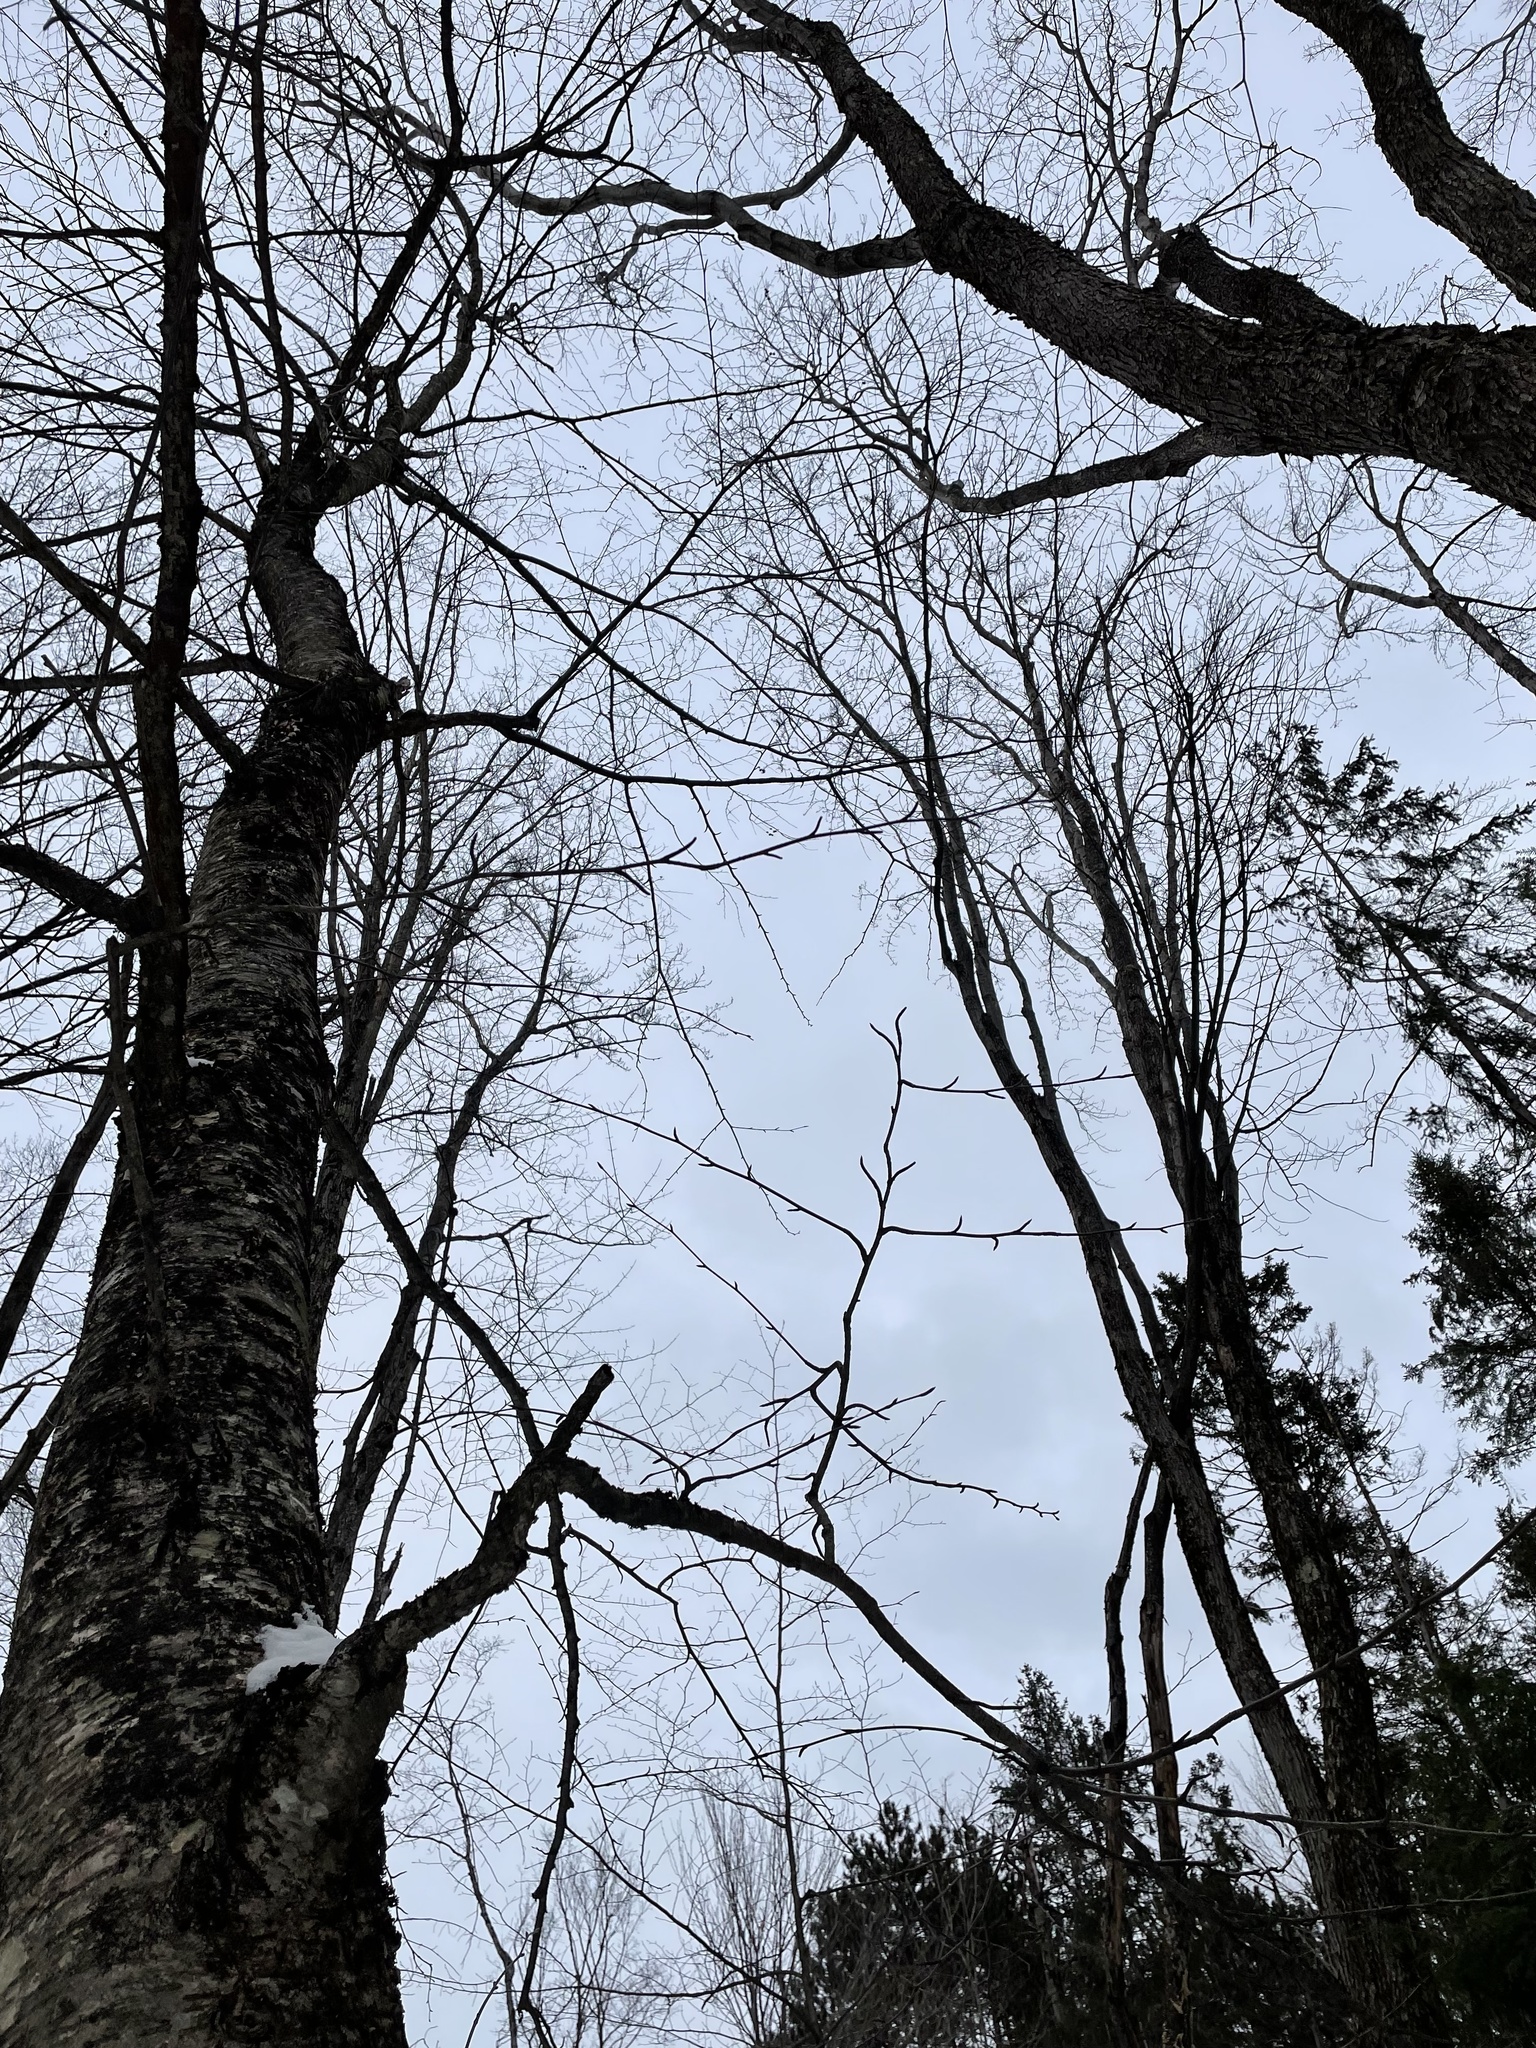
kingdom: Plantae
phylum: Tracheophyta
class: Magnoliopsida
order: Fagales
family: Betulaceae
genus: Betula
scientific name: Betula alleghaniensis
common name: Yellow birch
